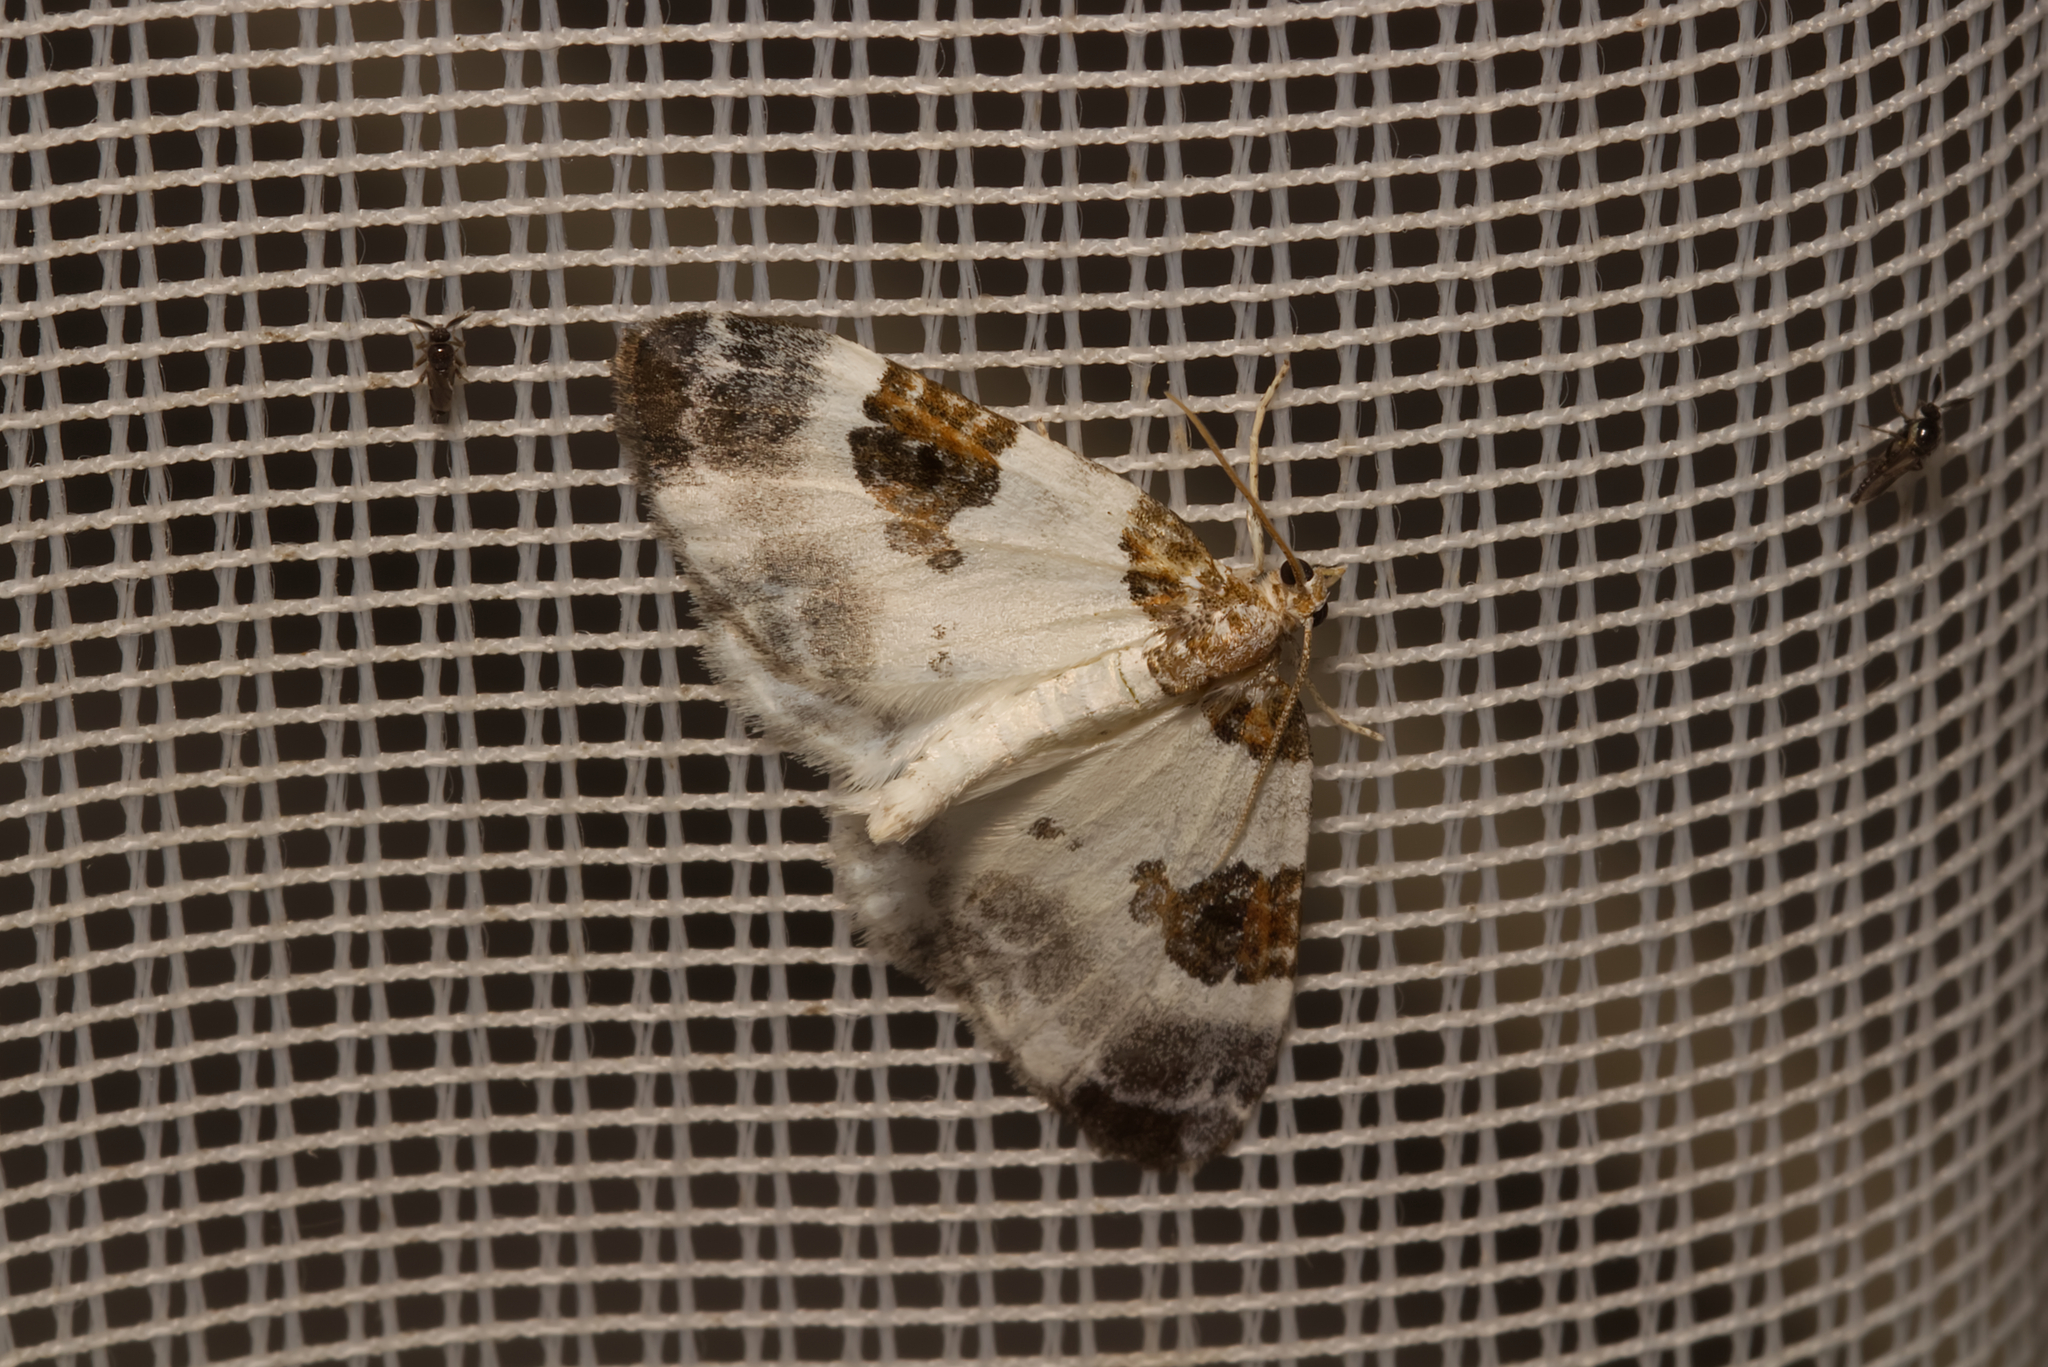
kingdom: Animalia
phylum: Arthropoda
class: Insecta
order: Lepidoptera
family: Geometridae
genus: Plemyria
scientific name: Plemyria rubiginata
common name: Blue-bordered carpet
